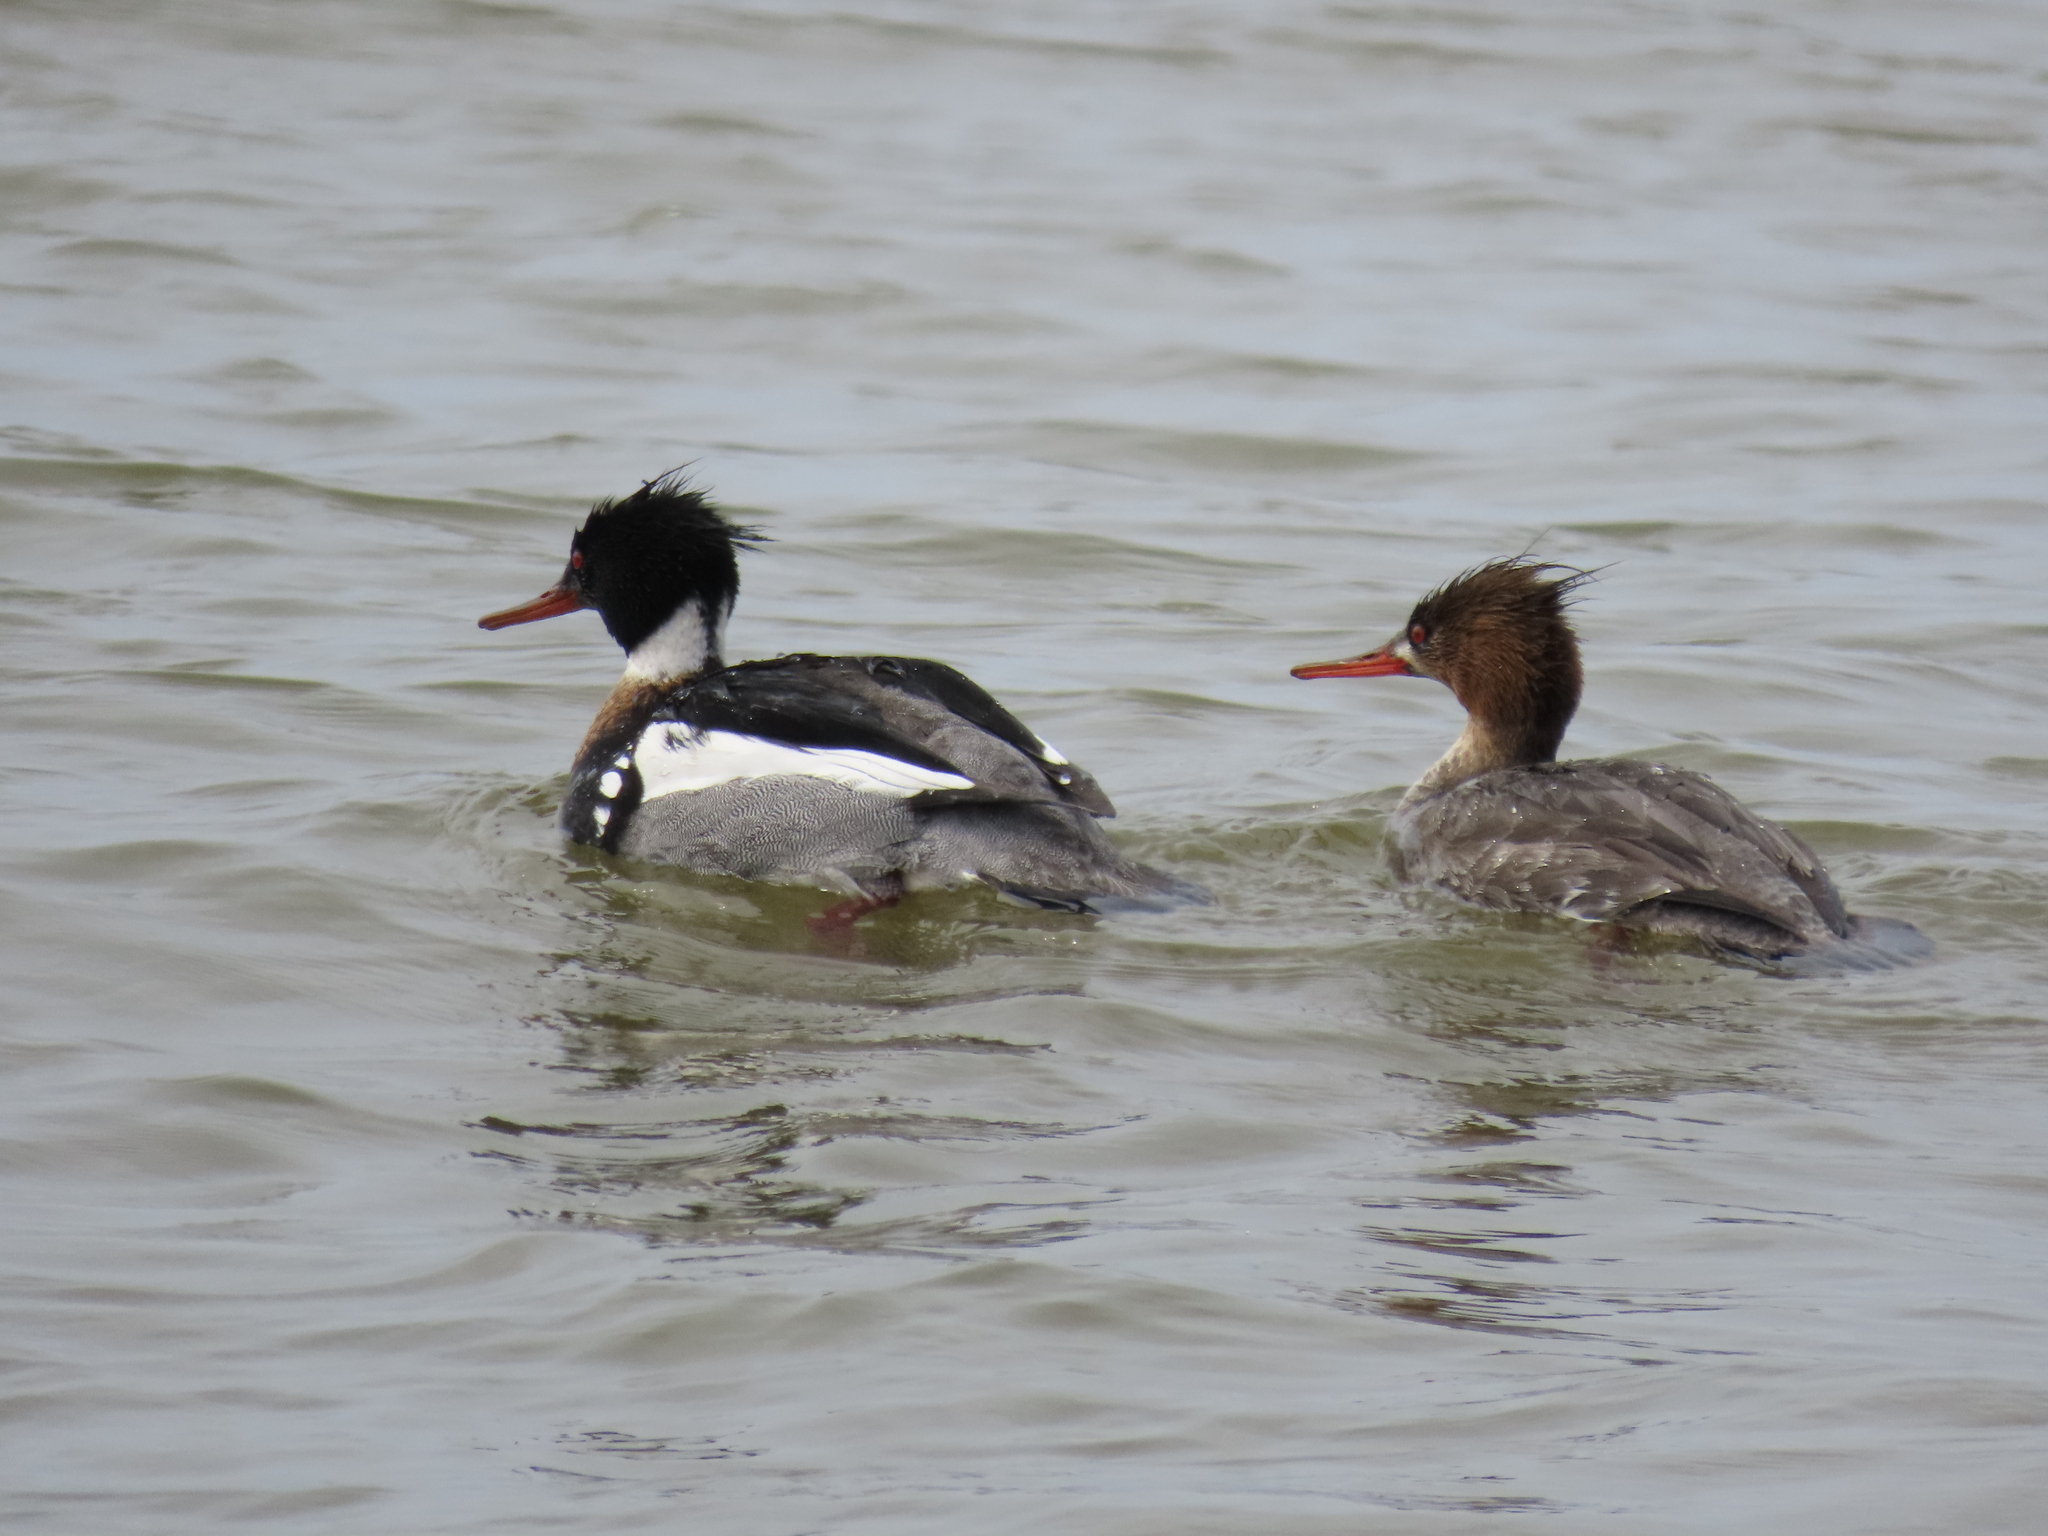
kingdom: Animalia
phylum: Chordata
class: Aves
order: Anseriformes
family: Anatidae
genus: Mergus
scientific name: Mergus serrator
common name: Red-breasted merganser
